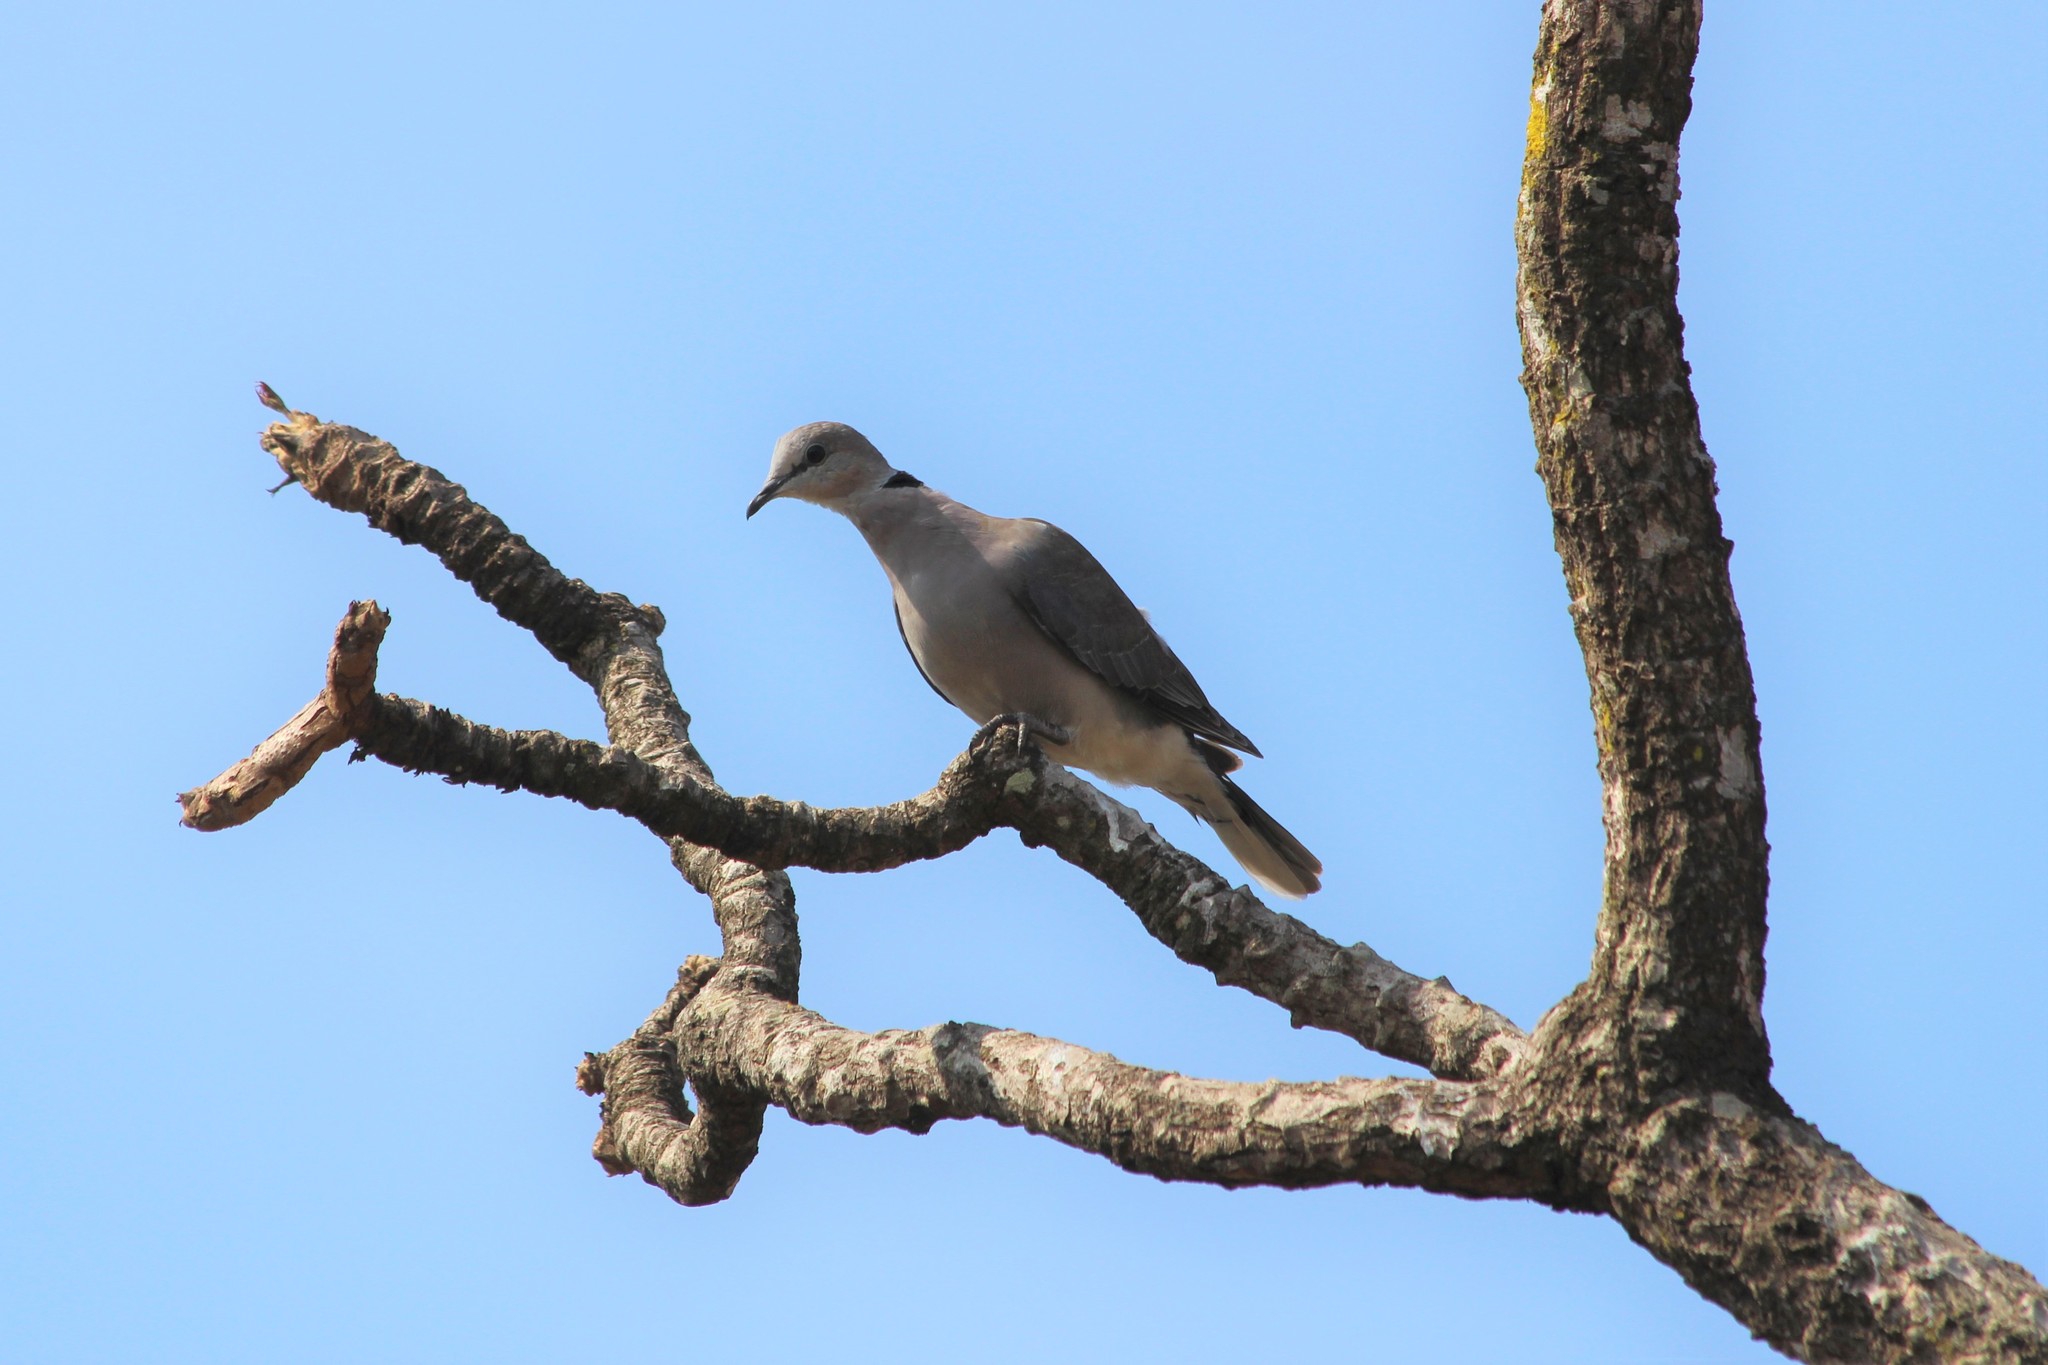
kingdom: Animalia
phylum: Chordata
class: Aves
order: Columbiformes
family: Columbidae
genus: Streptopelia
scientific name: Streptopelia capicola
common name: Ring-necked dove
